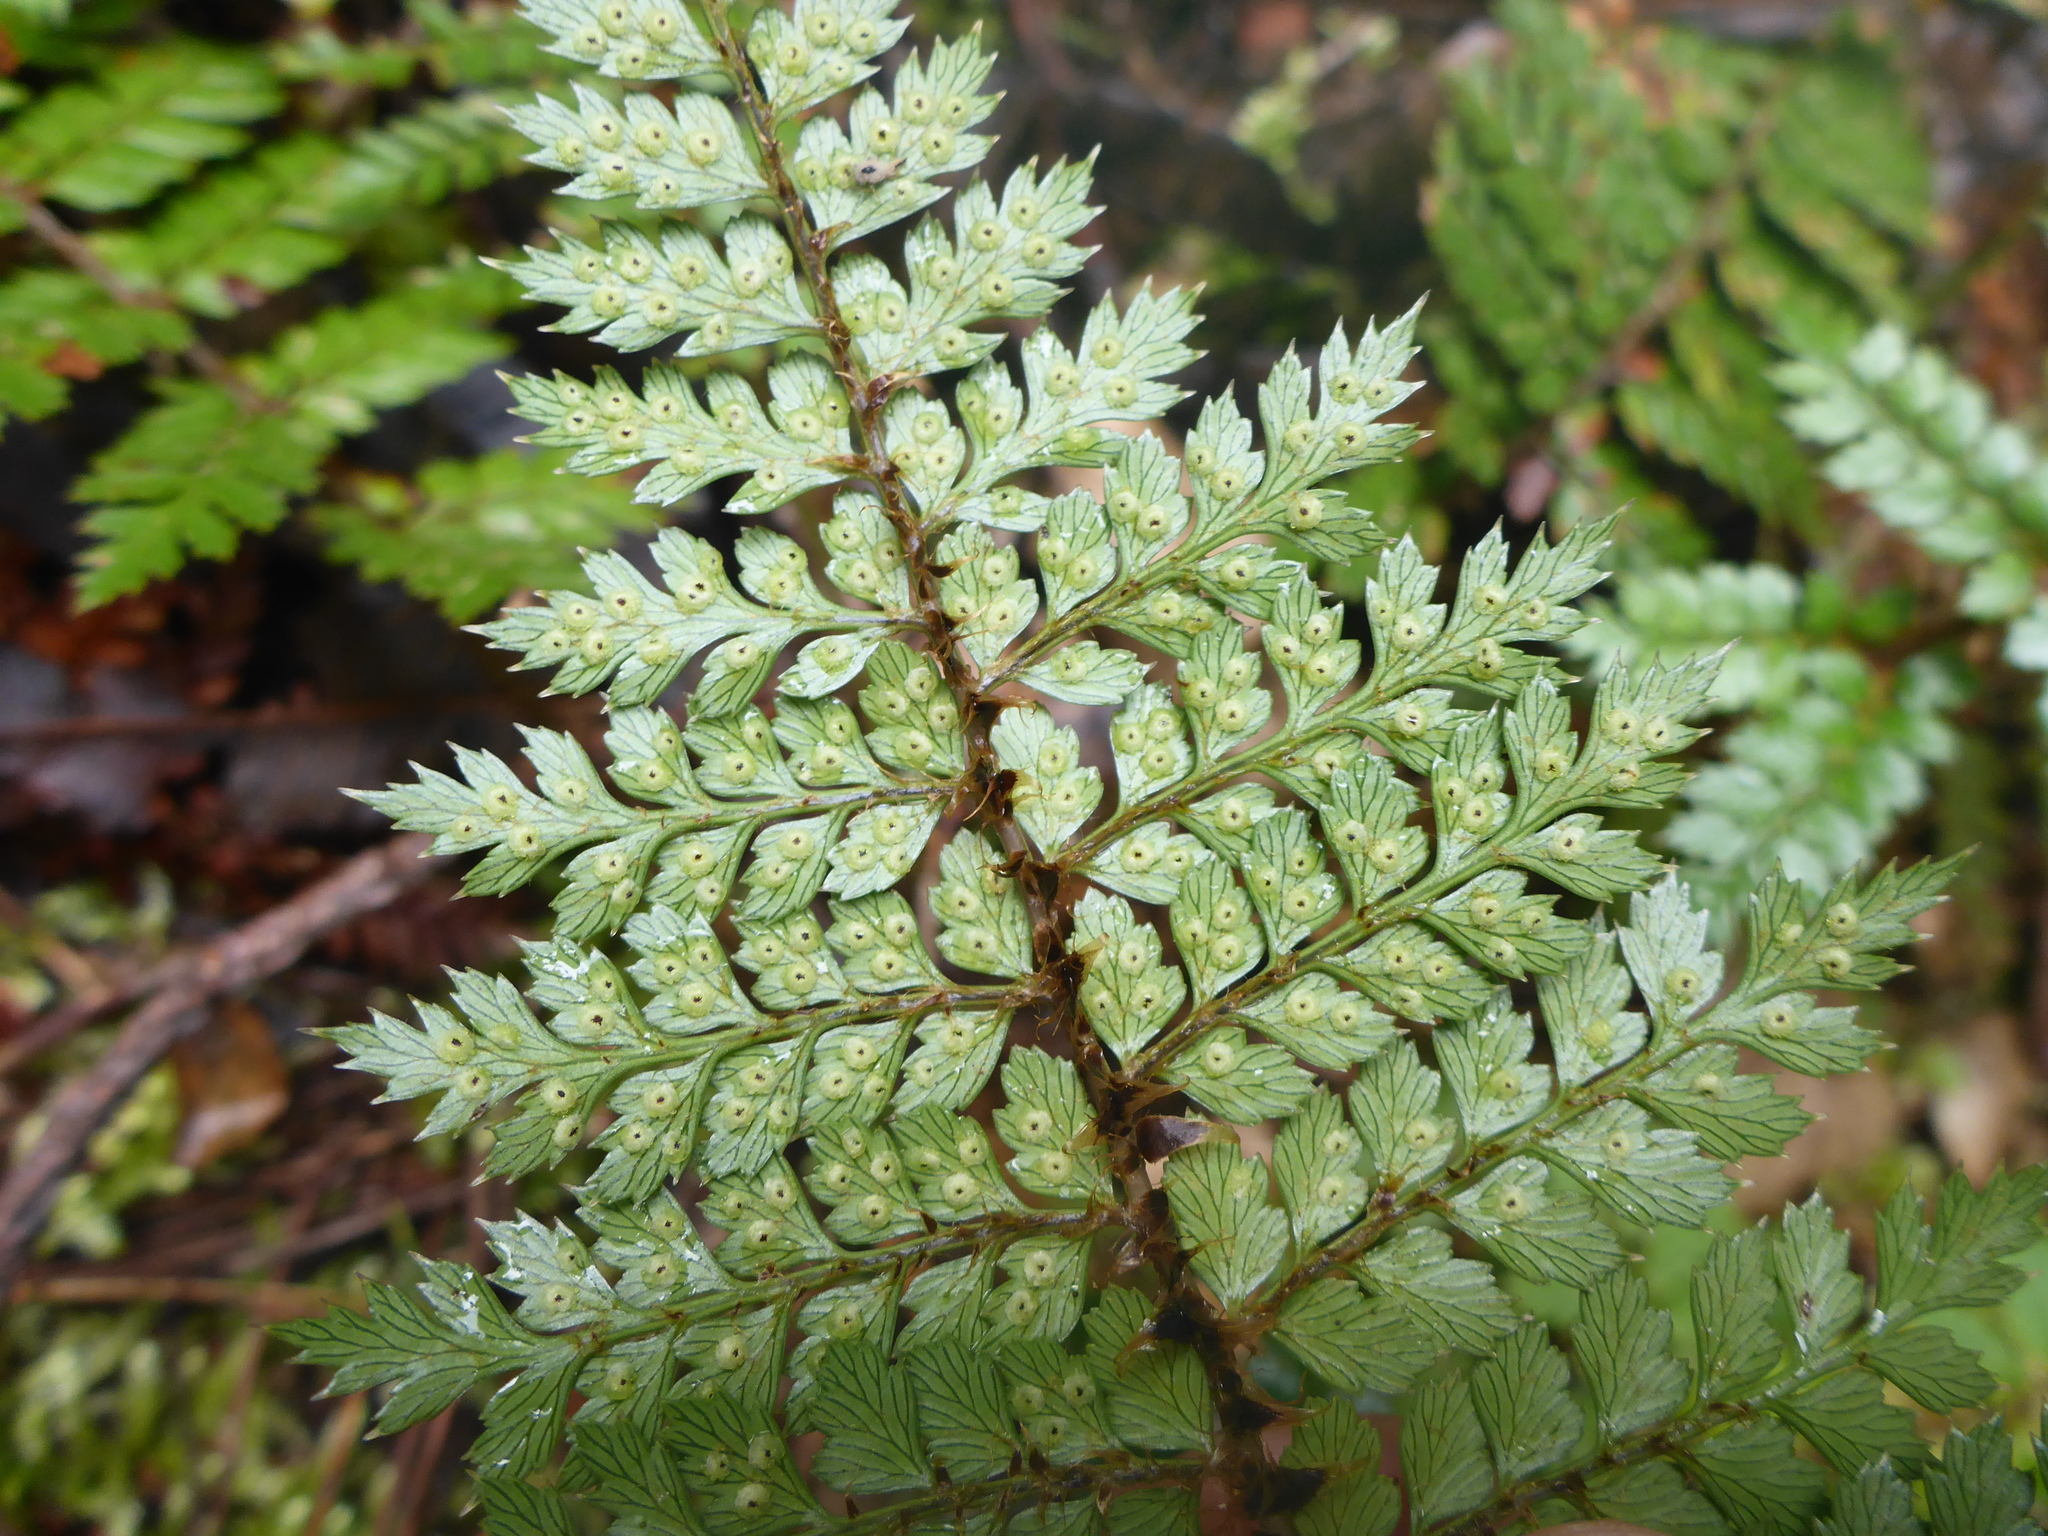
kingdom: Plantae
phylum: Tracheophyta
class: Polypodiopsida
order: Polypodiales
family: Dryopteridaceae
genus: Polystichum
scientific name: Polystichum vestitum
